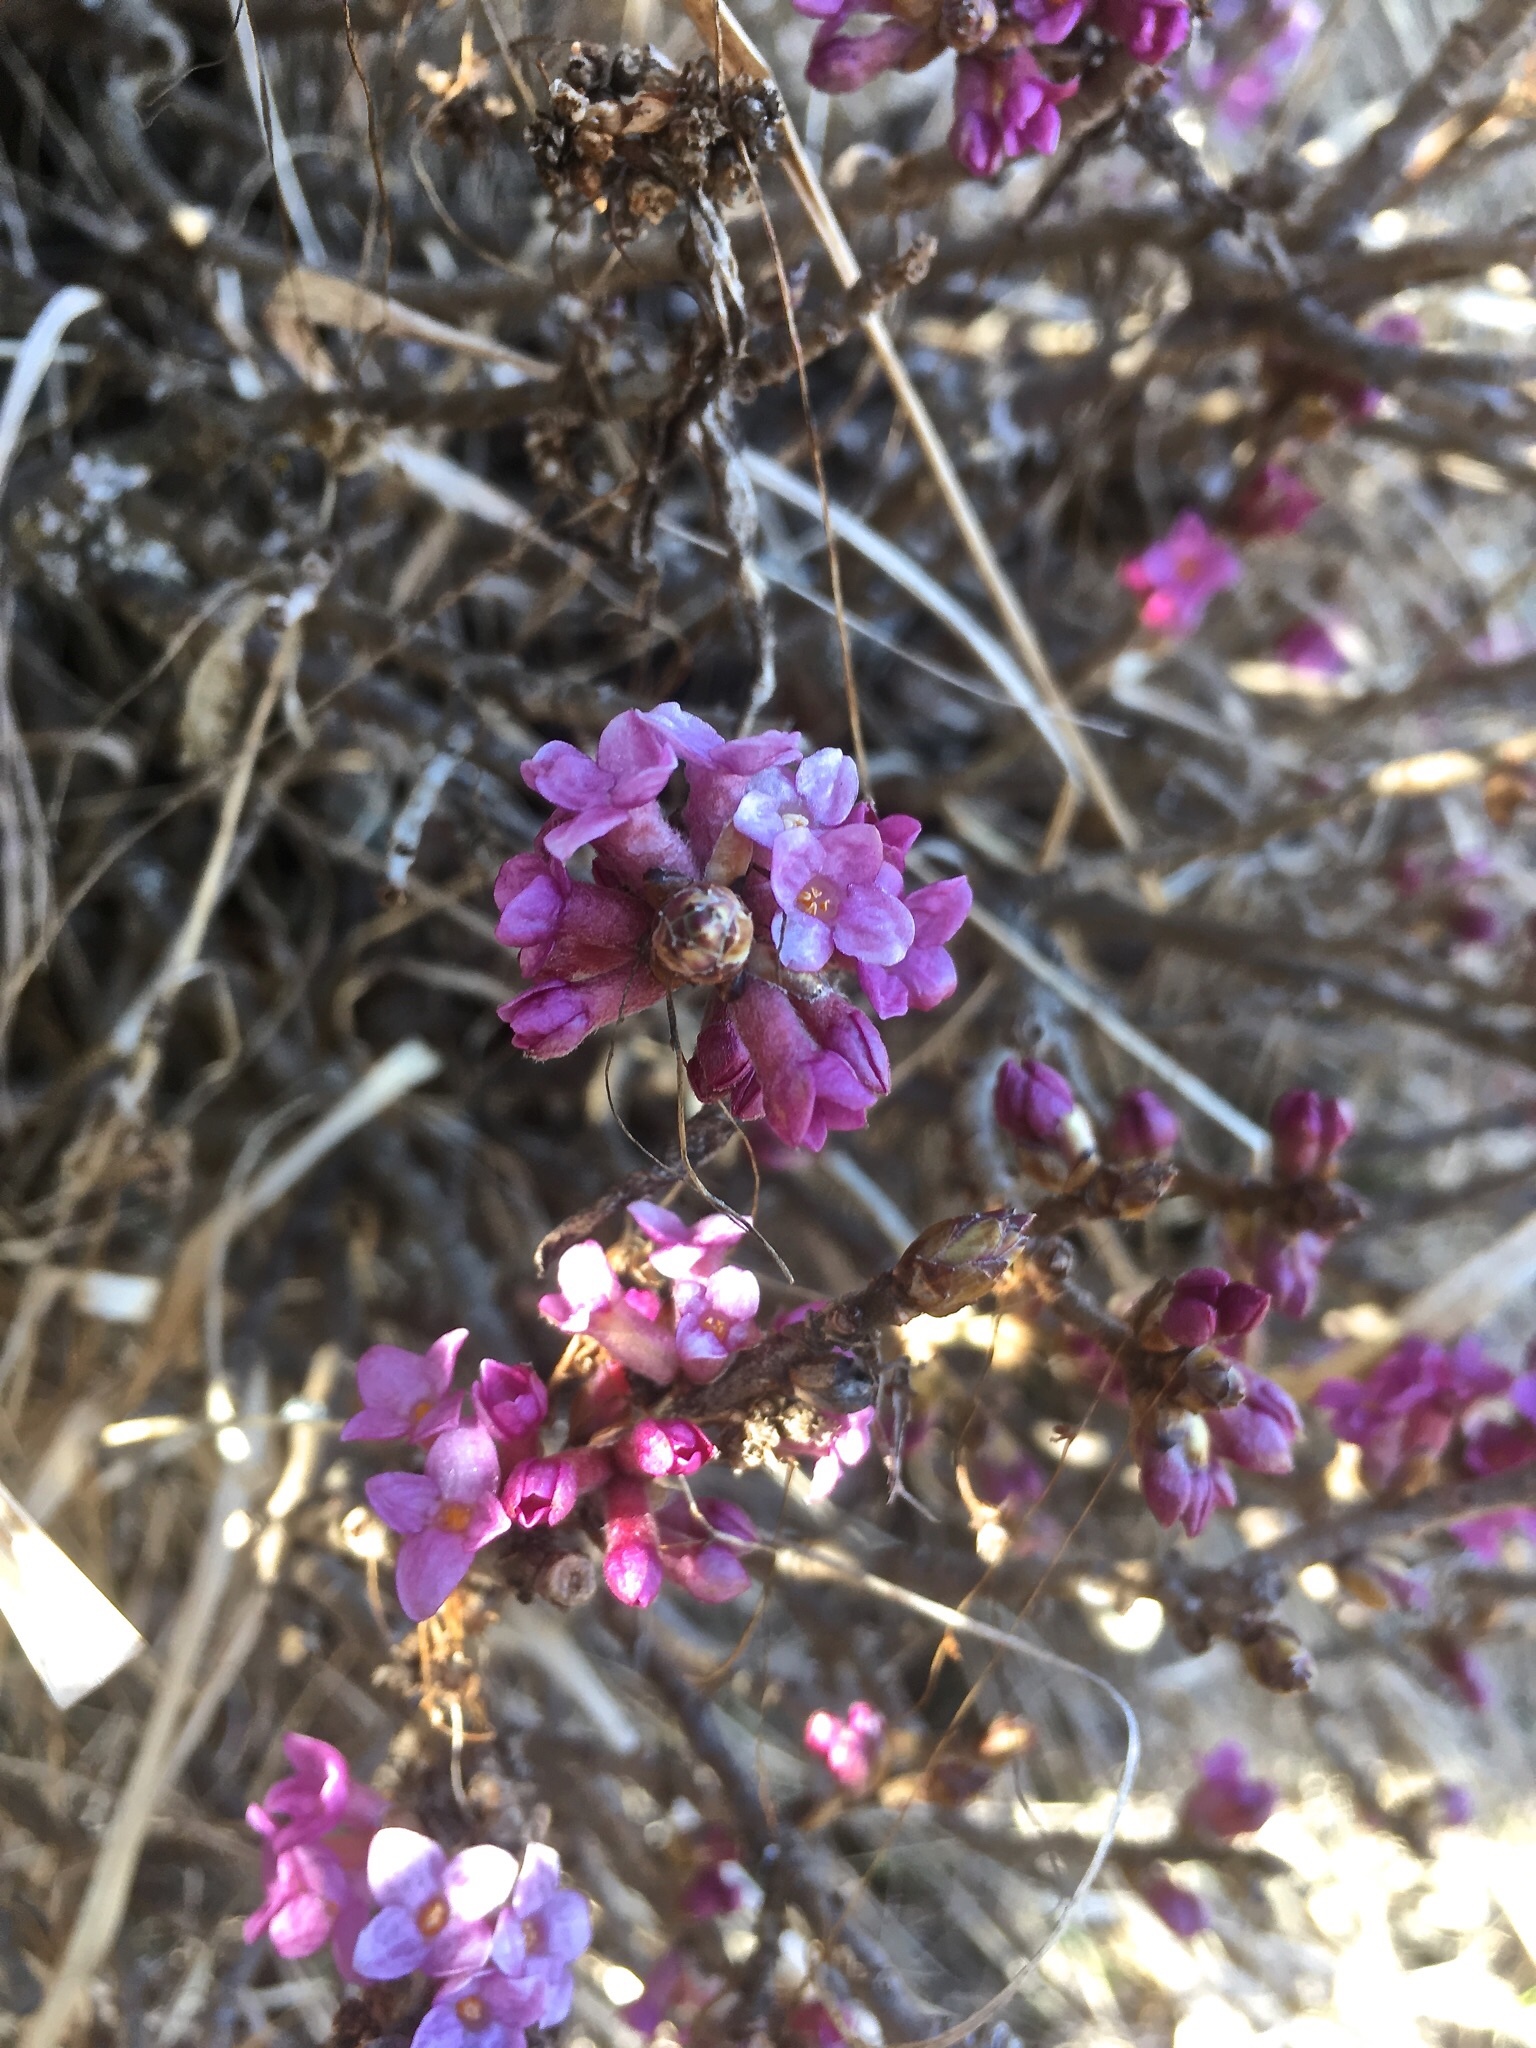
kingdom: Plantae
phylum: Tracheophyta
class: Magnoliopsida
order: Malvales
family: Thymelaeaceae
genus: Daphne
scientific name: Daphne mezereum
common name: Mezereon
